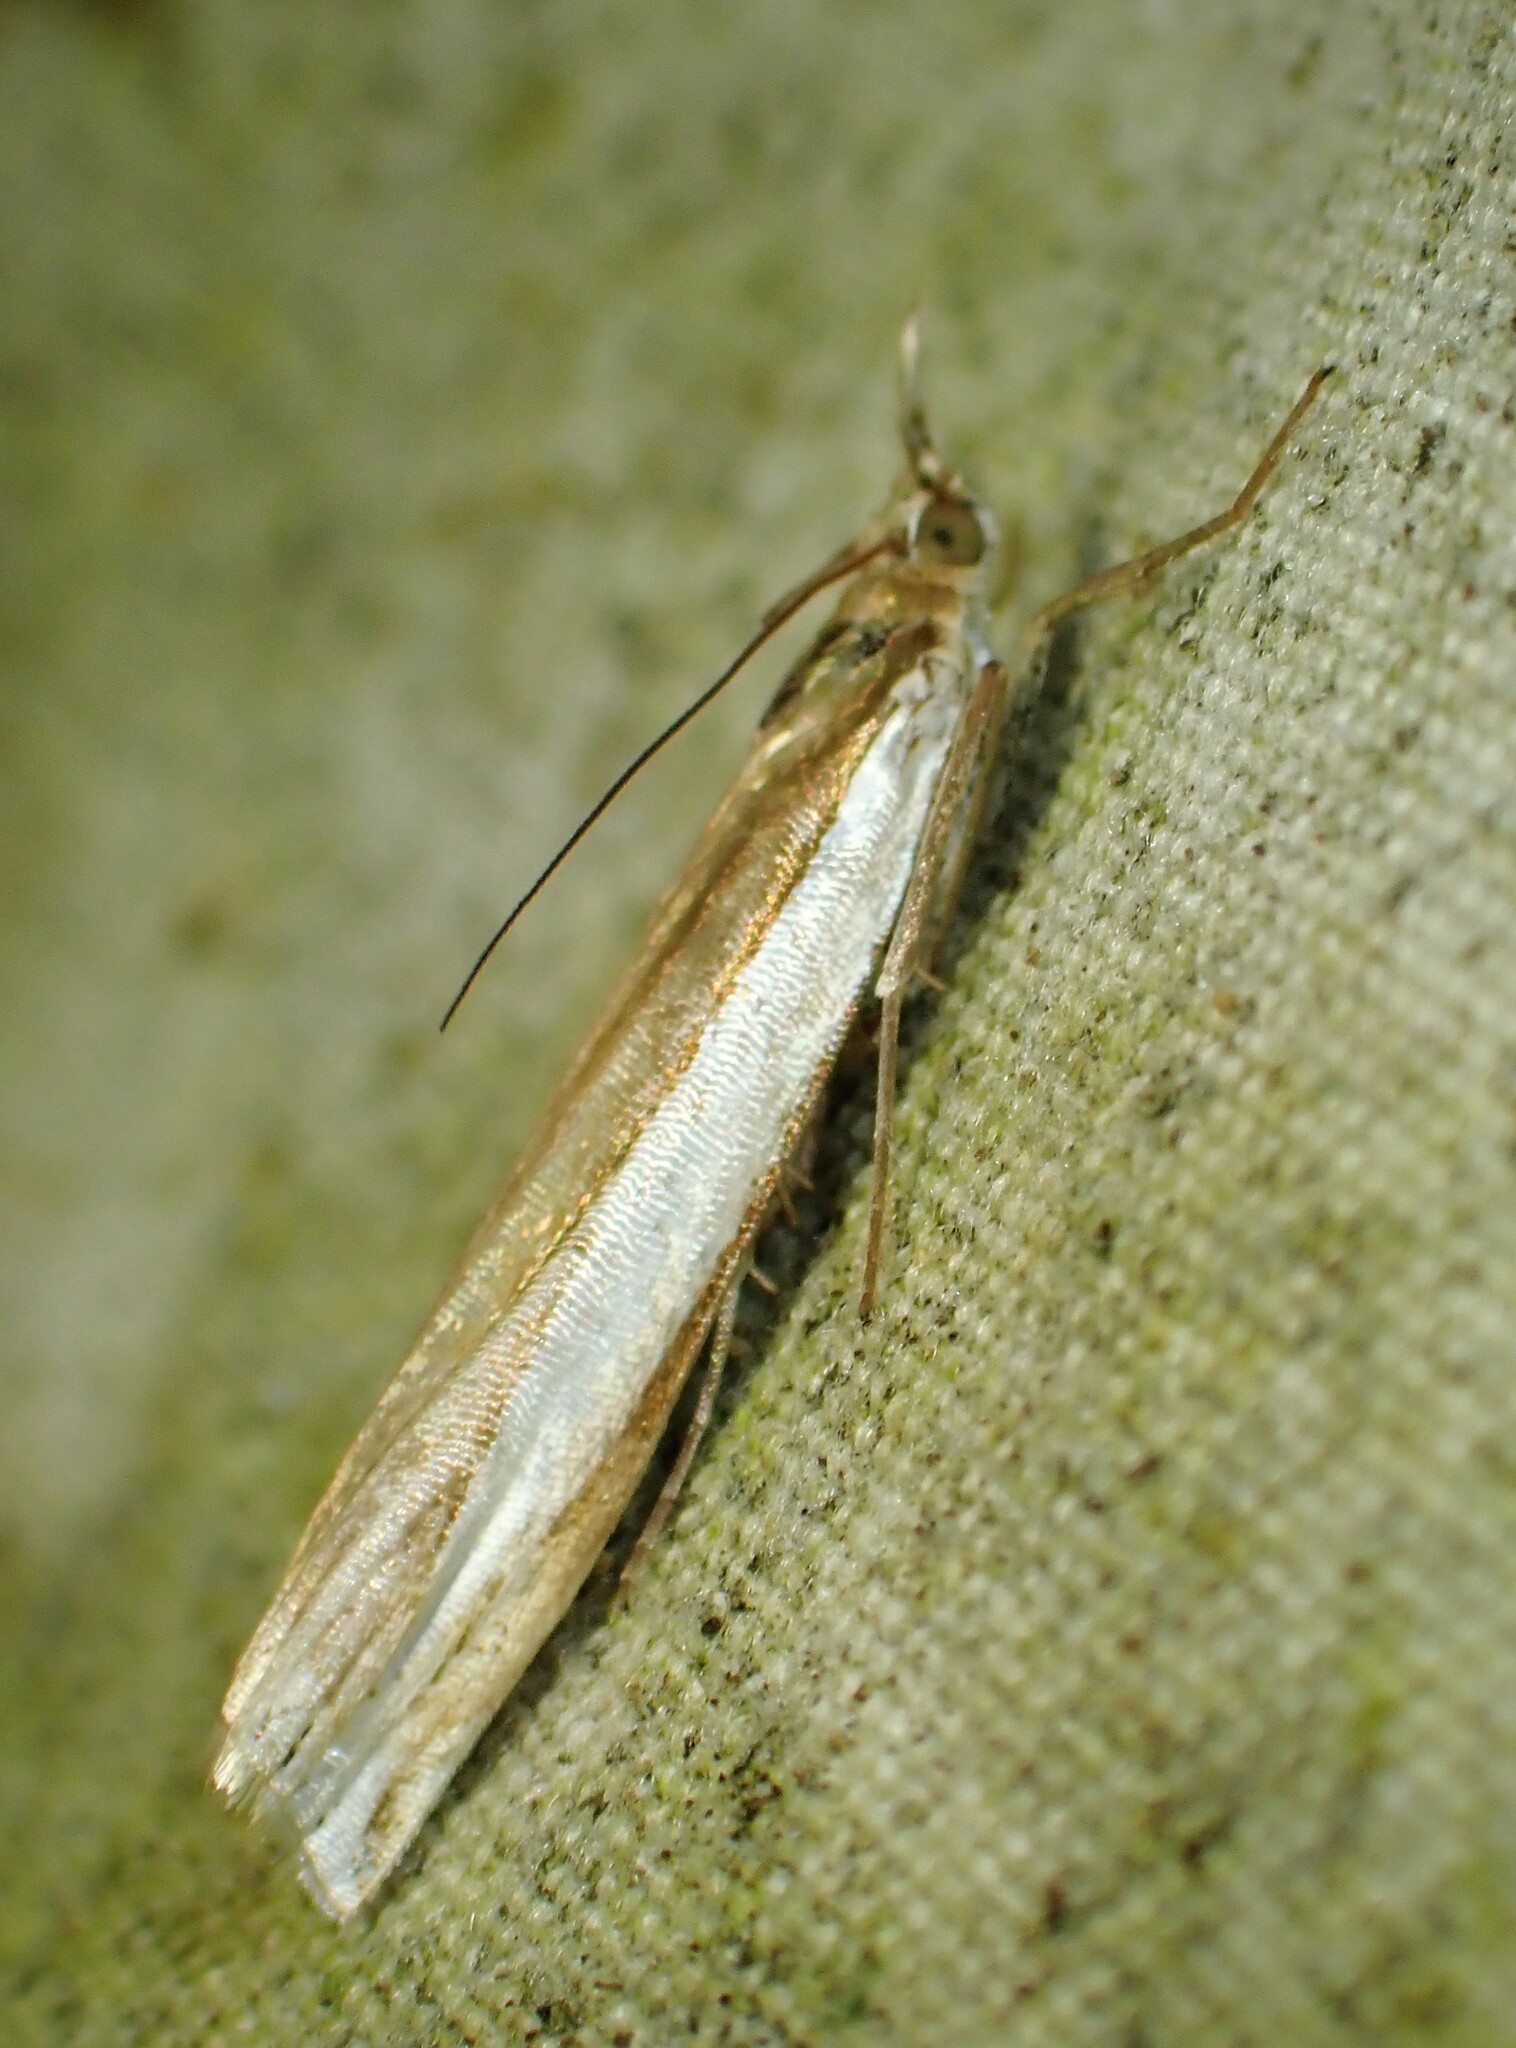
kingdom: Animalia
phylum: Arthropoda
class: Insecta
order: Lepidoptera
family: Crambidae
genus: Crambus
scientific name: Crambus leachellus
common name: Leach's grass-veneer
